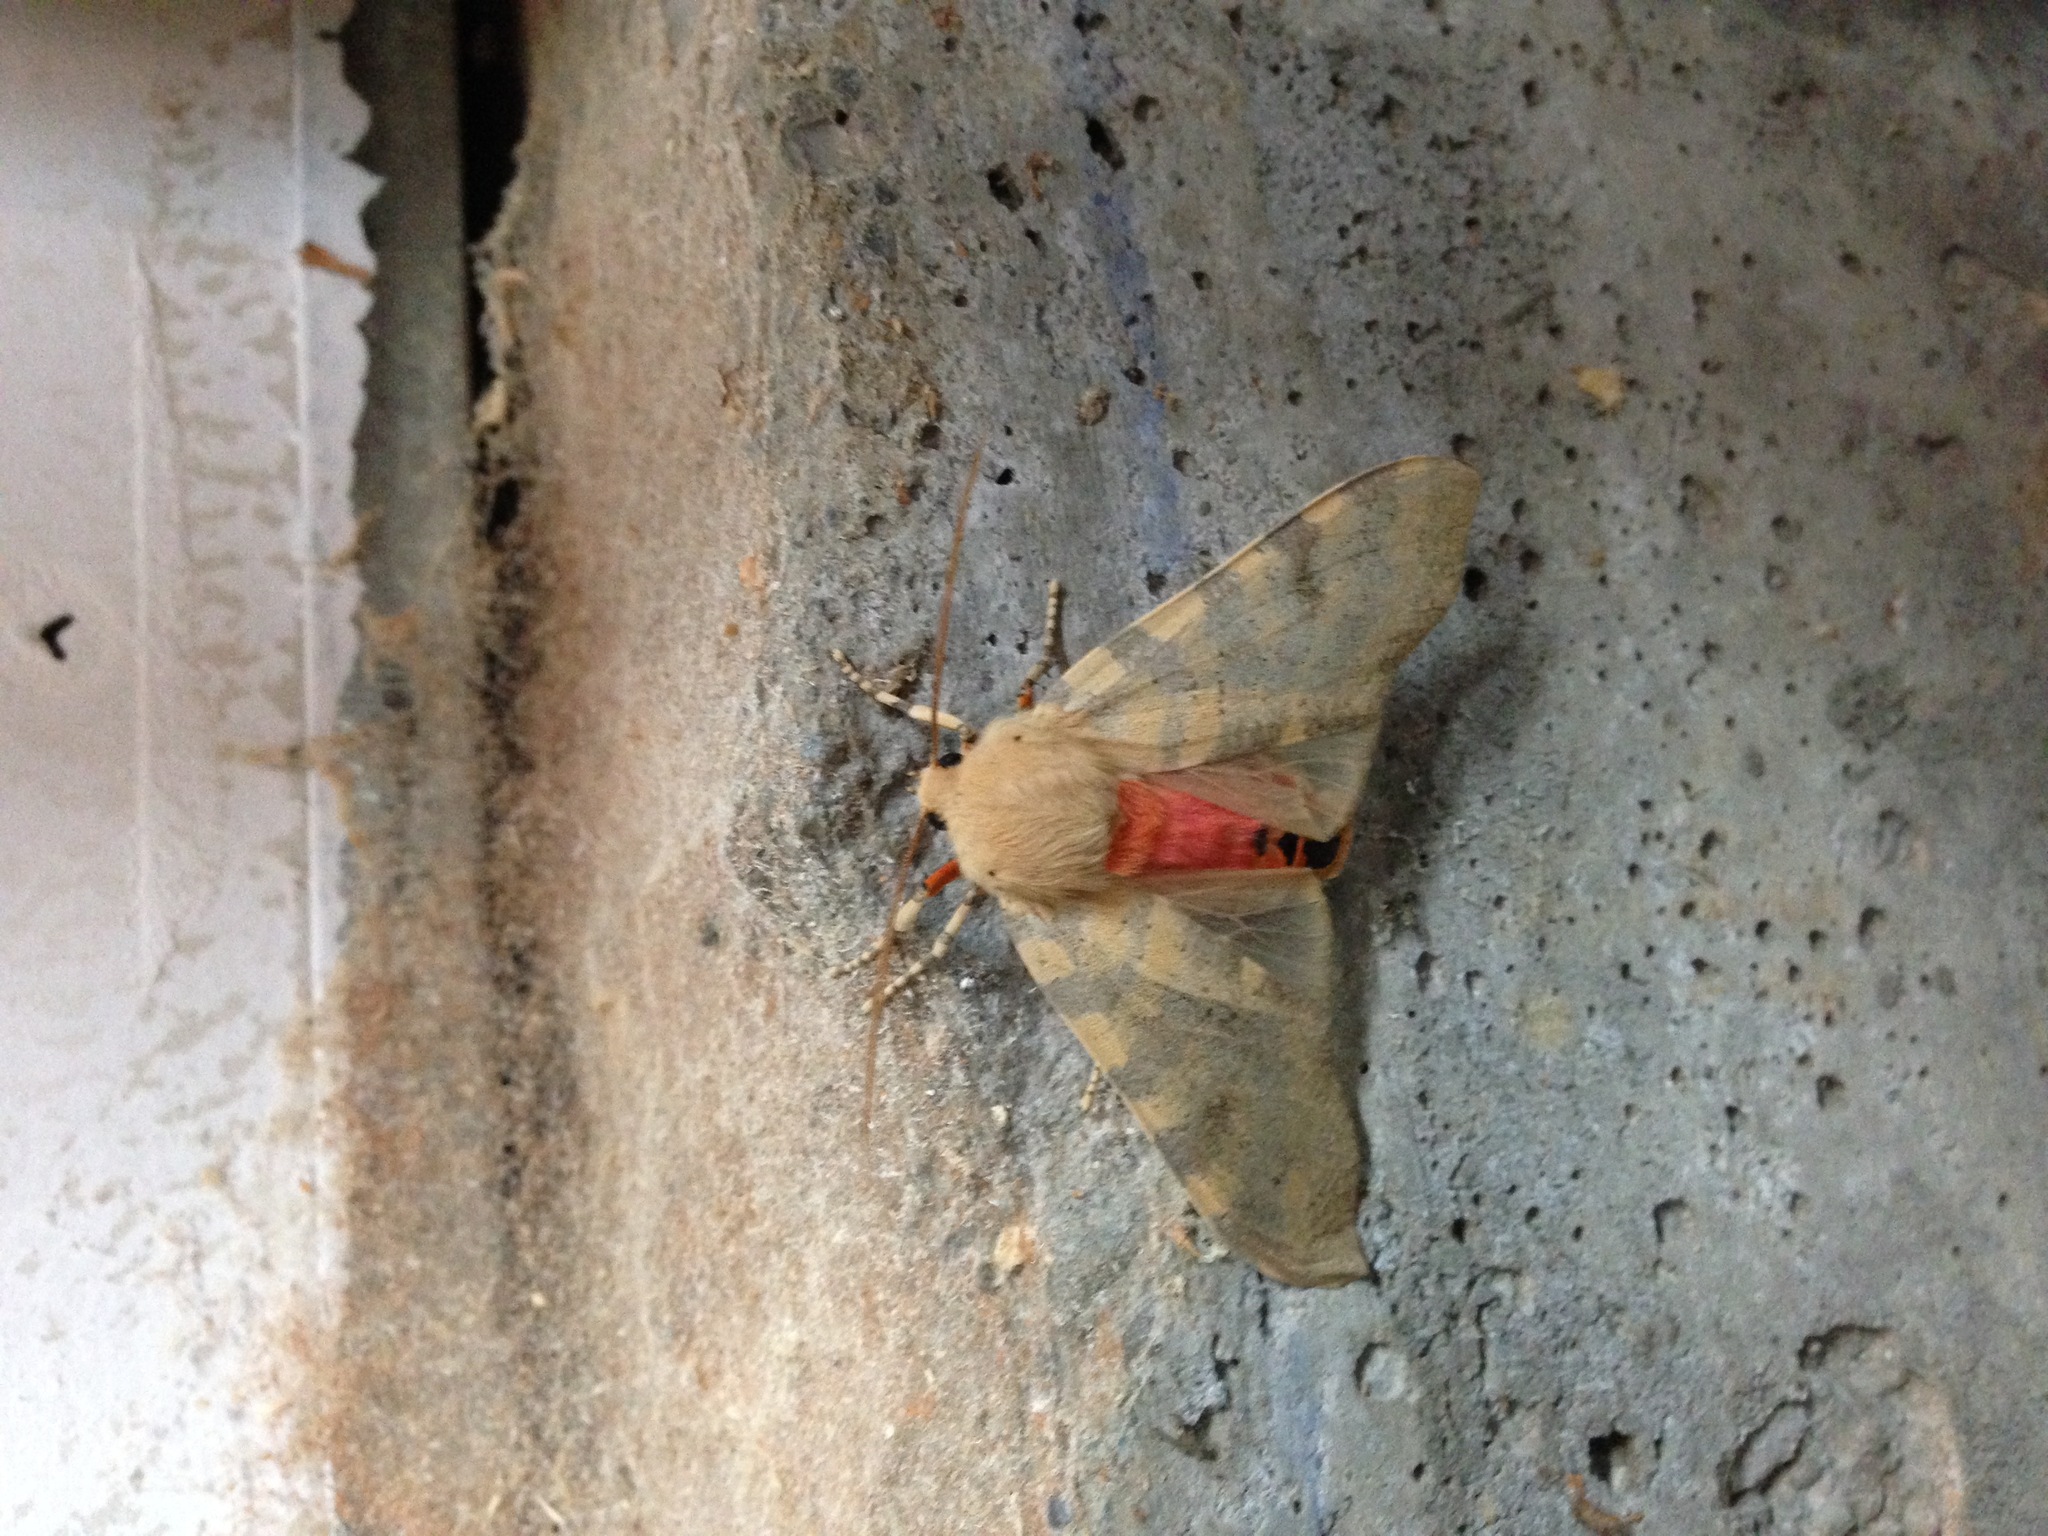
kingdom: Animalia
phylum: Arthropoda
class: Insecta
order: Lepidoptera
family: Erebidae
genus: Hemihyalea
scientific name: Hemihyalea edwardsii
